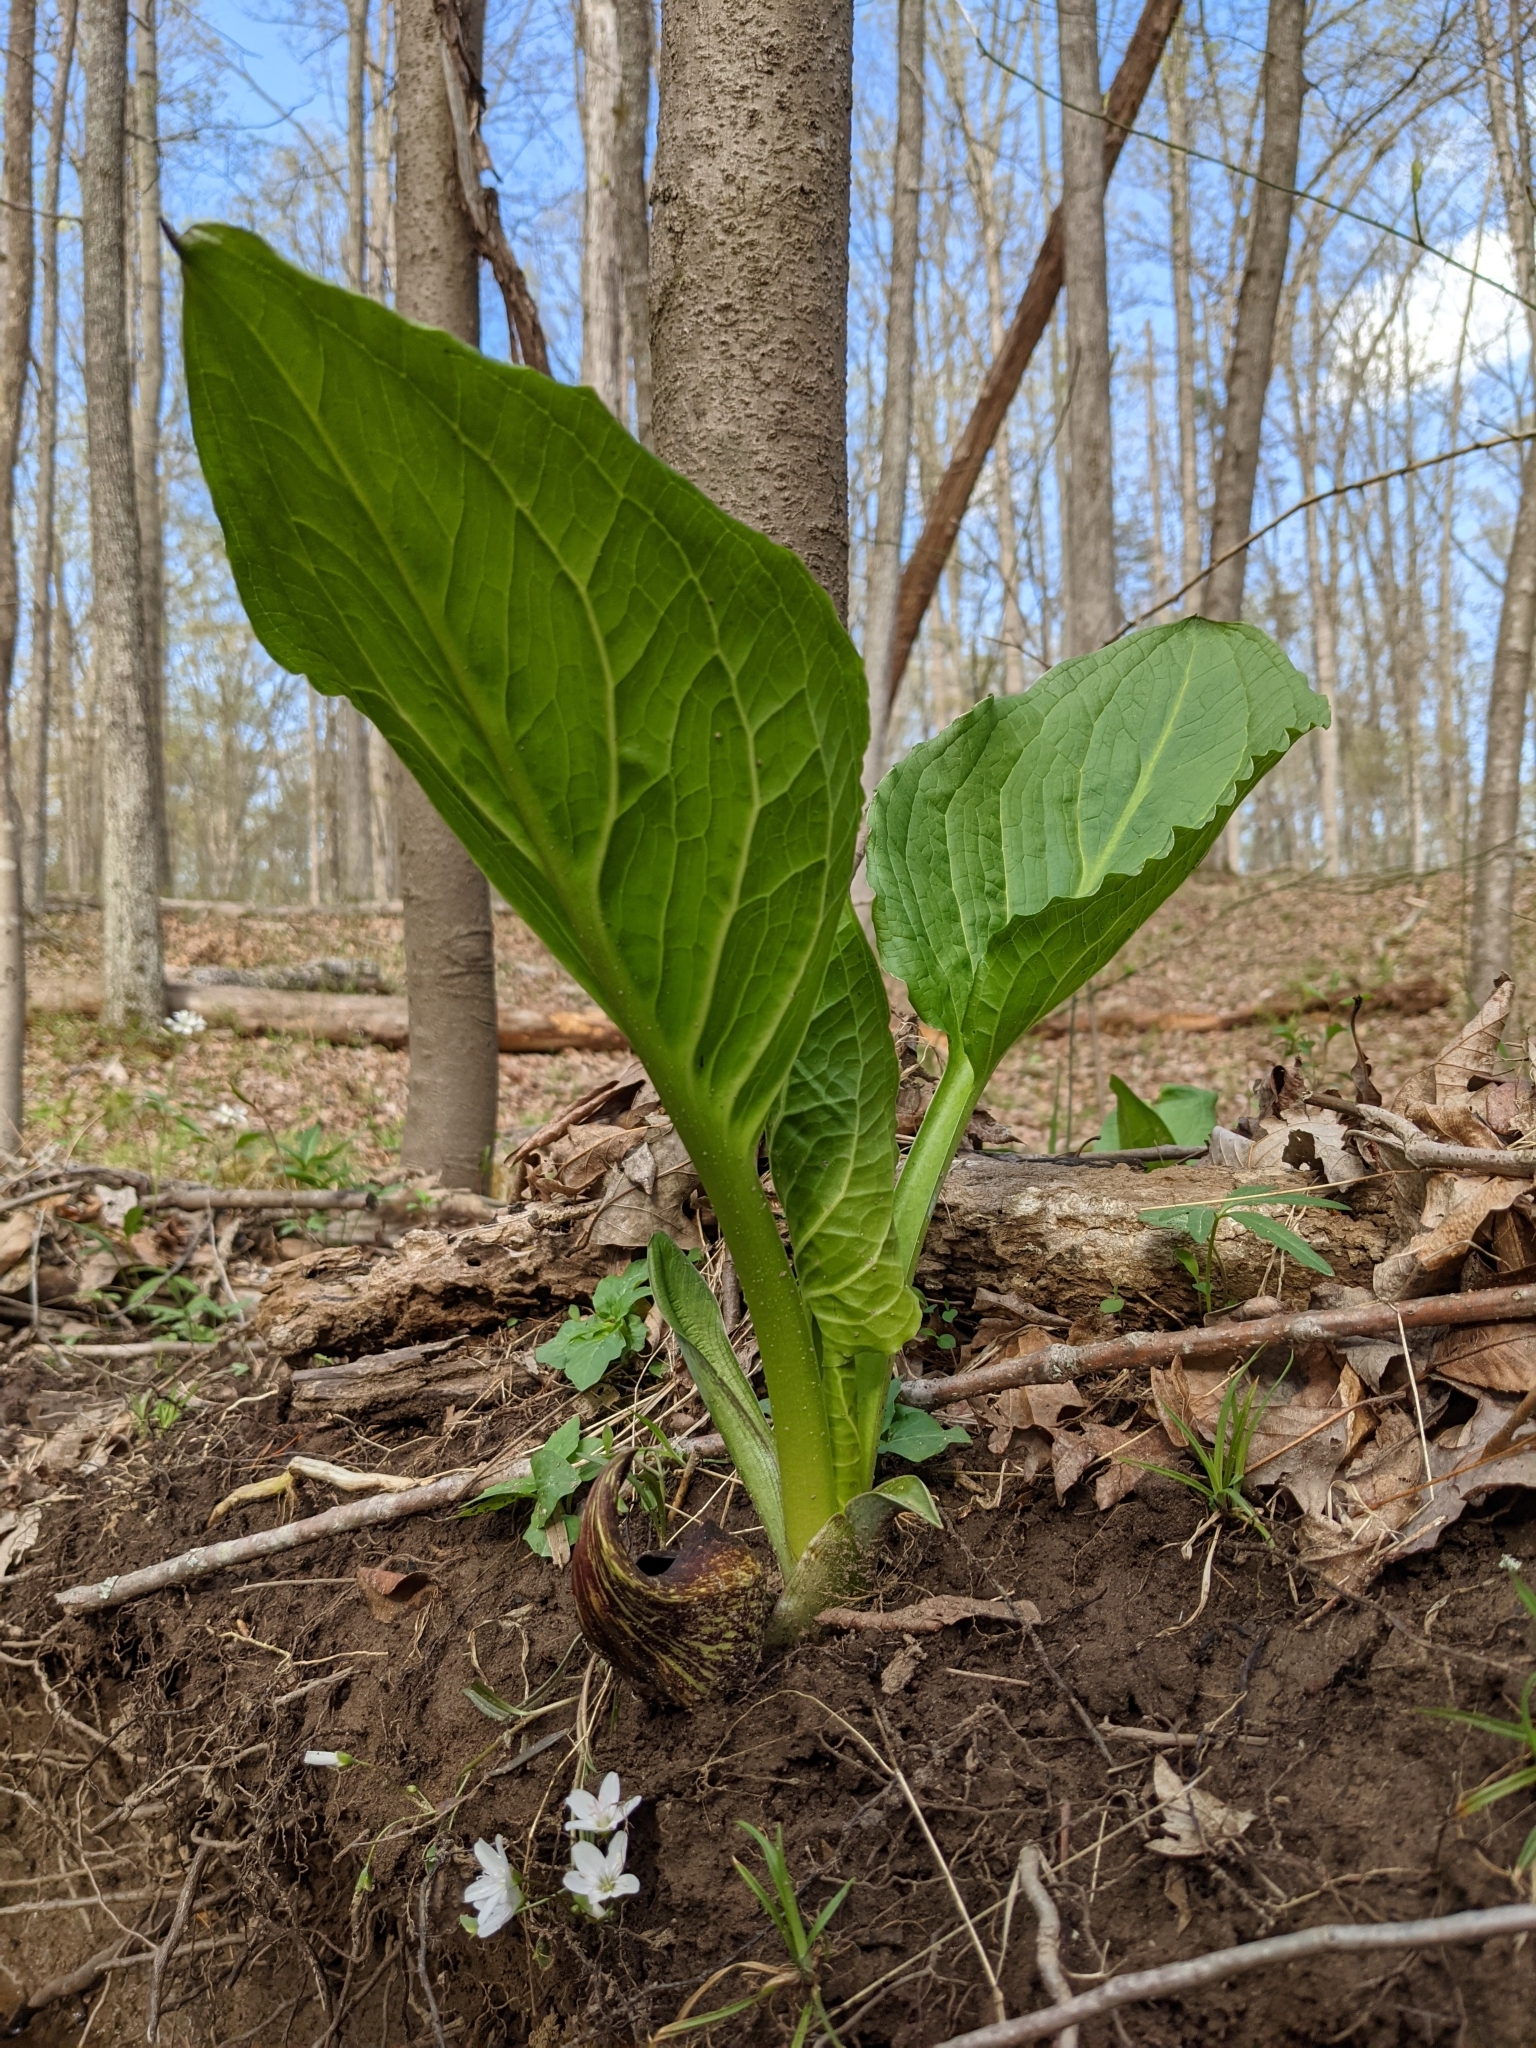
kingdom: Plantae
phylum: Tracheophyta
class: Liliopsida
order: Alismatales
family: Araceae
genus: Symplocarpus
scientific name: Symplocarpus foetidus
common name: Eastern skunk cabbage
